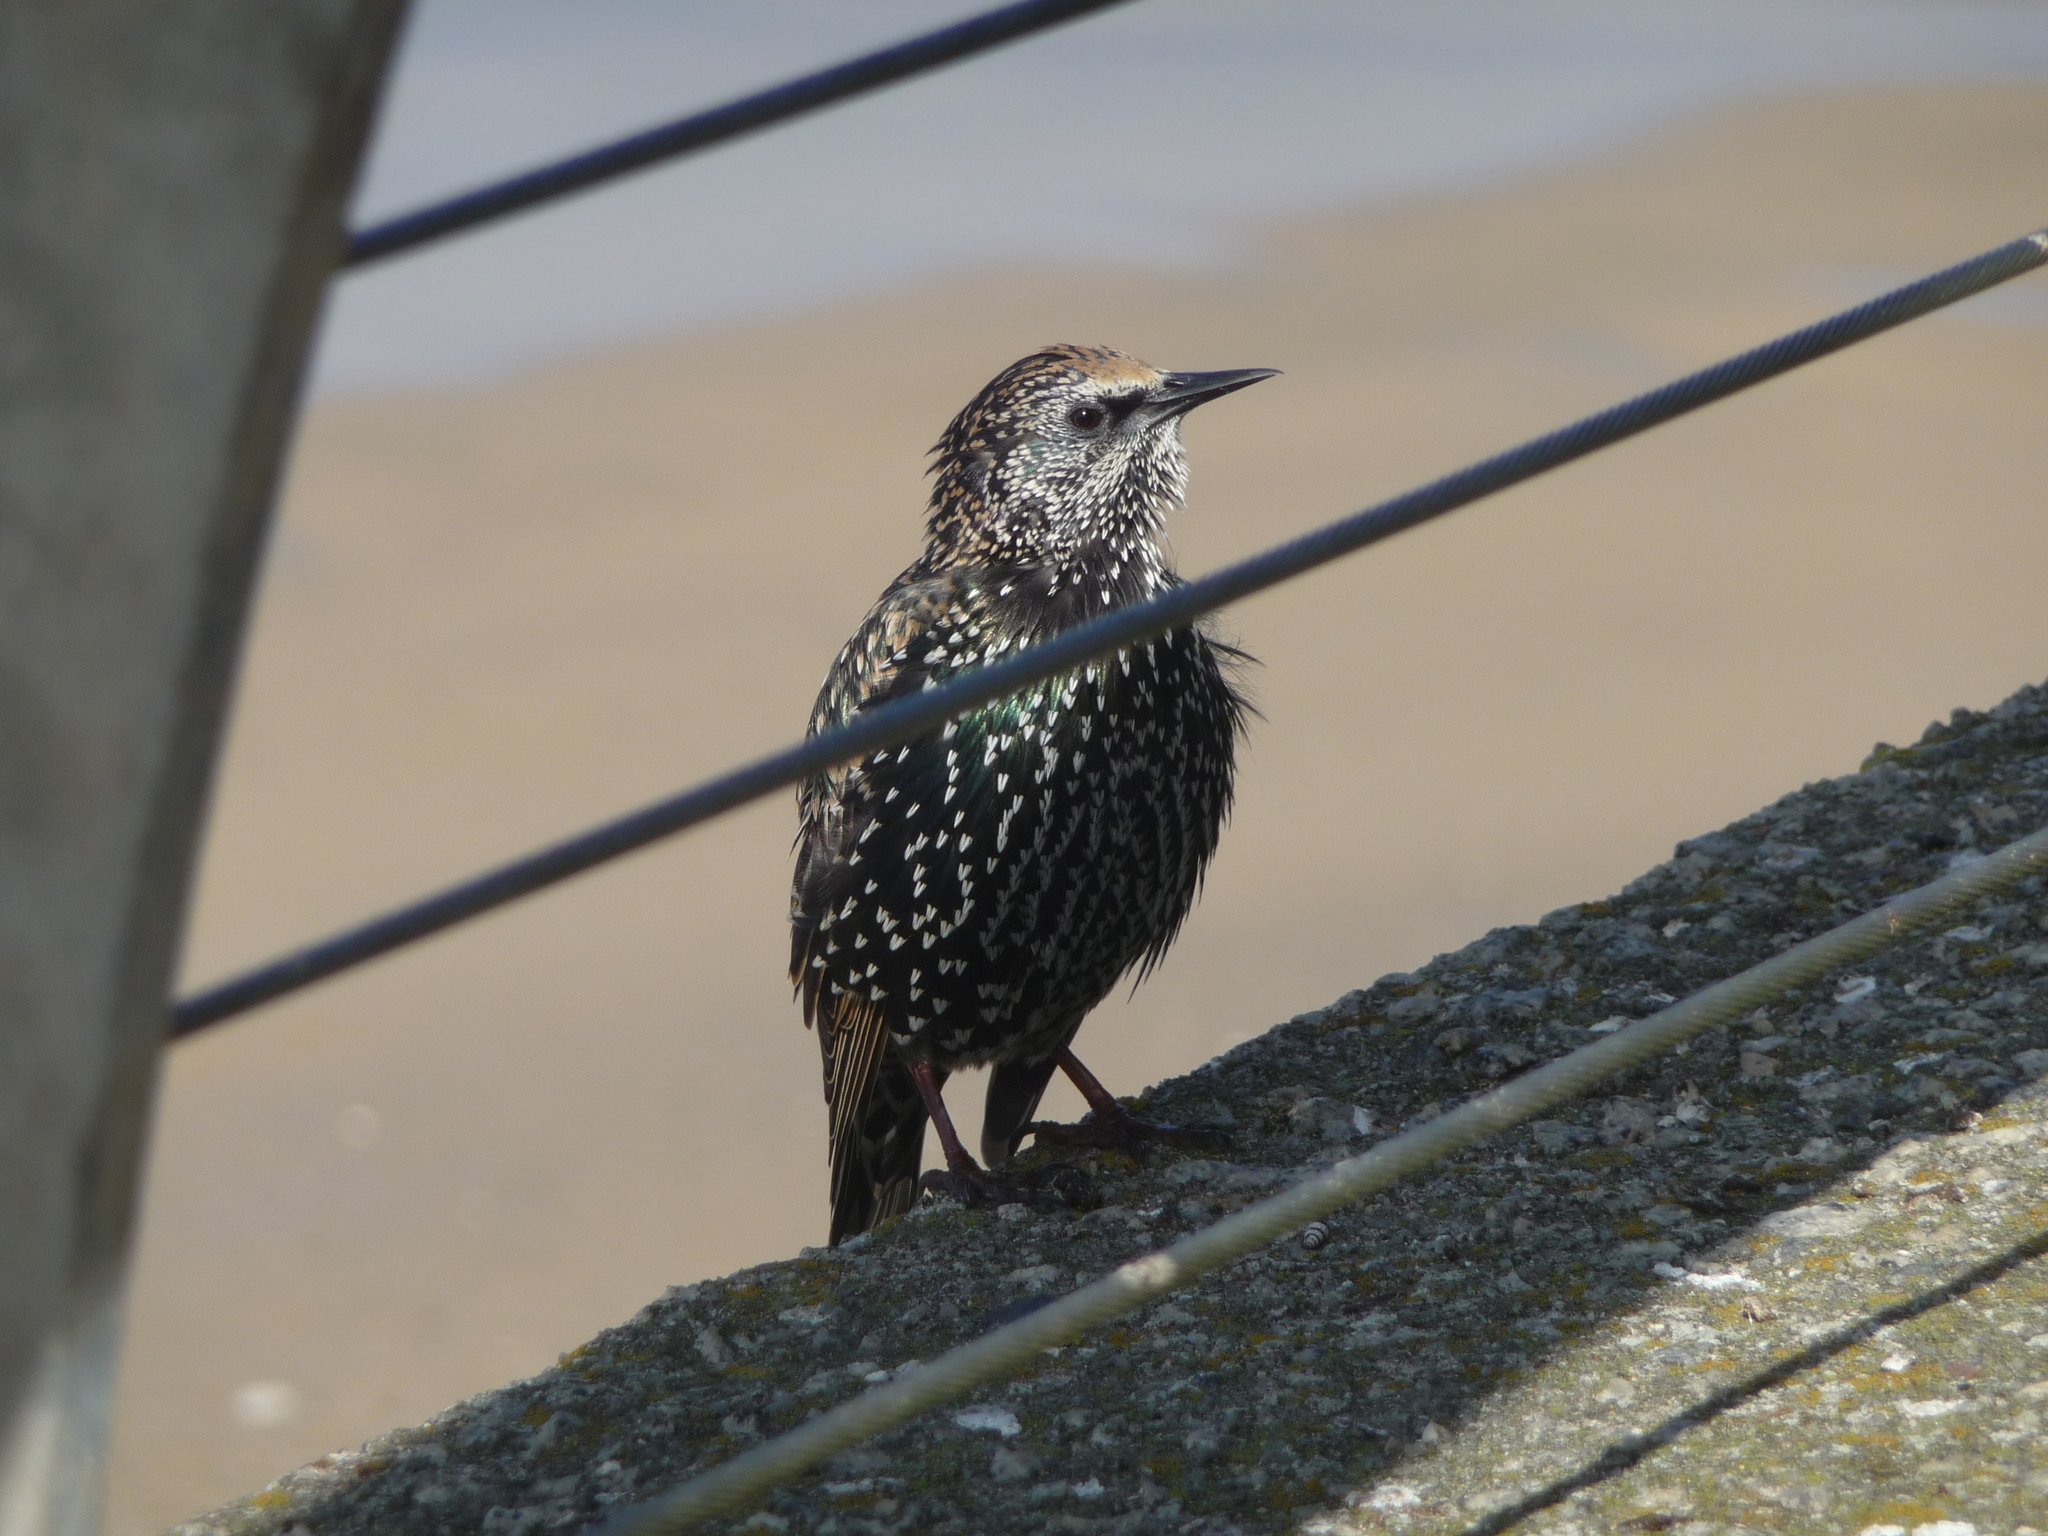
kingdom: Animalia
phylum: Chordata
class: Aves
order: Passeriformes
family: Sturnidae
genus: Sturnus
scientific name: Sturnus vulgaris
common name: Common starling
